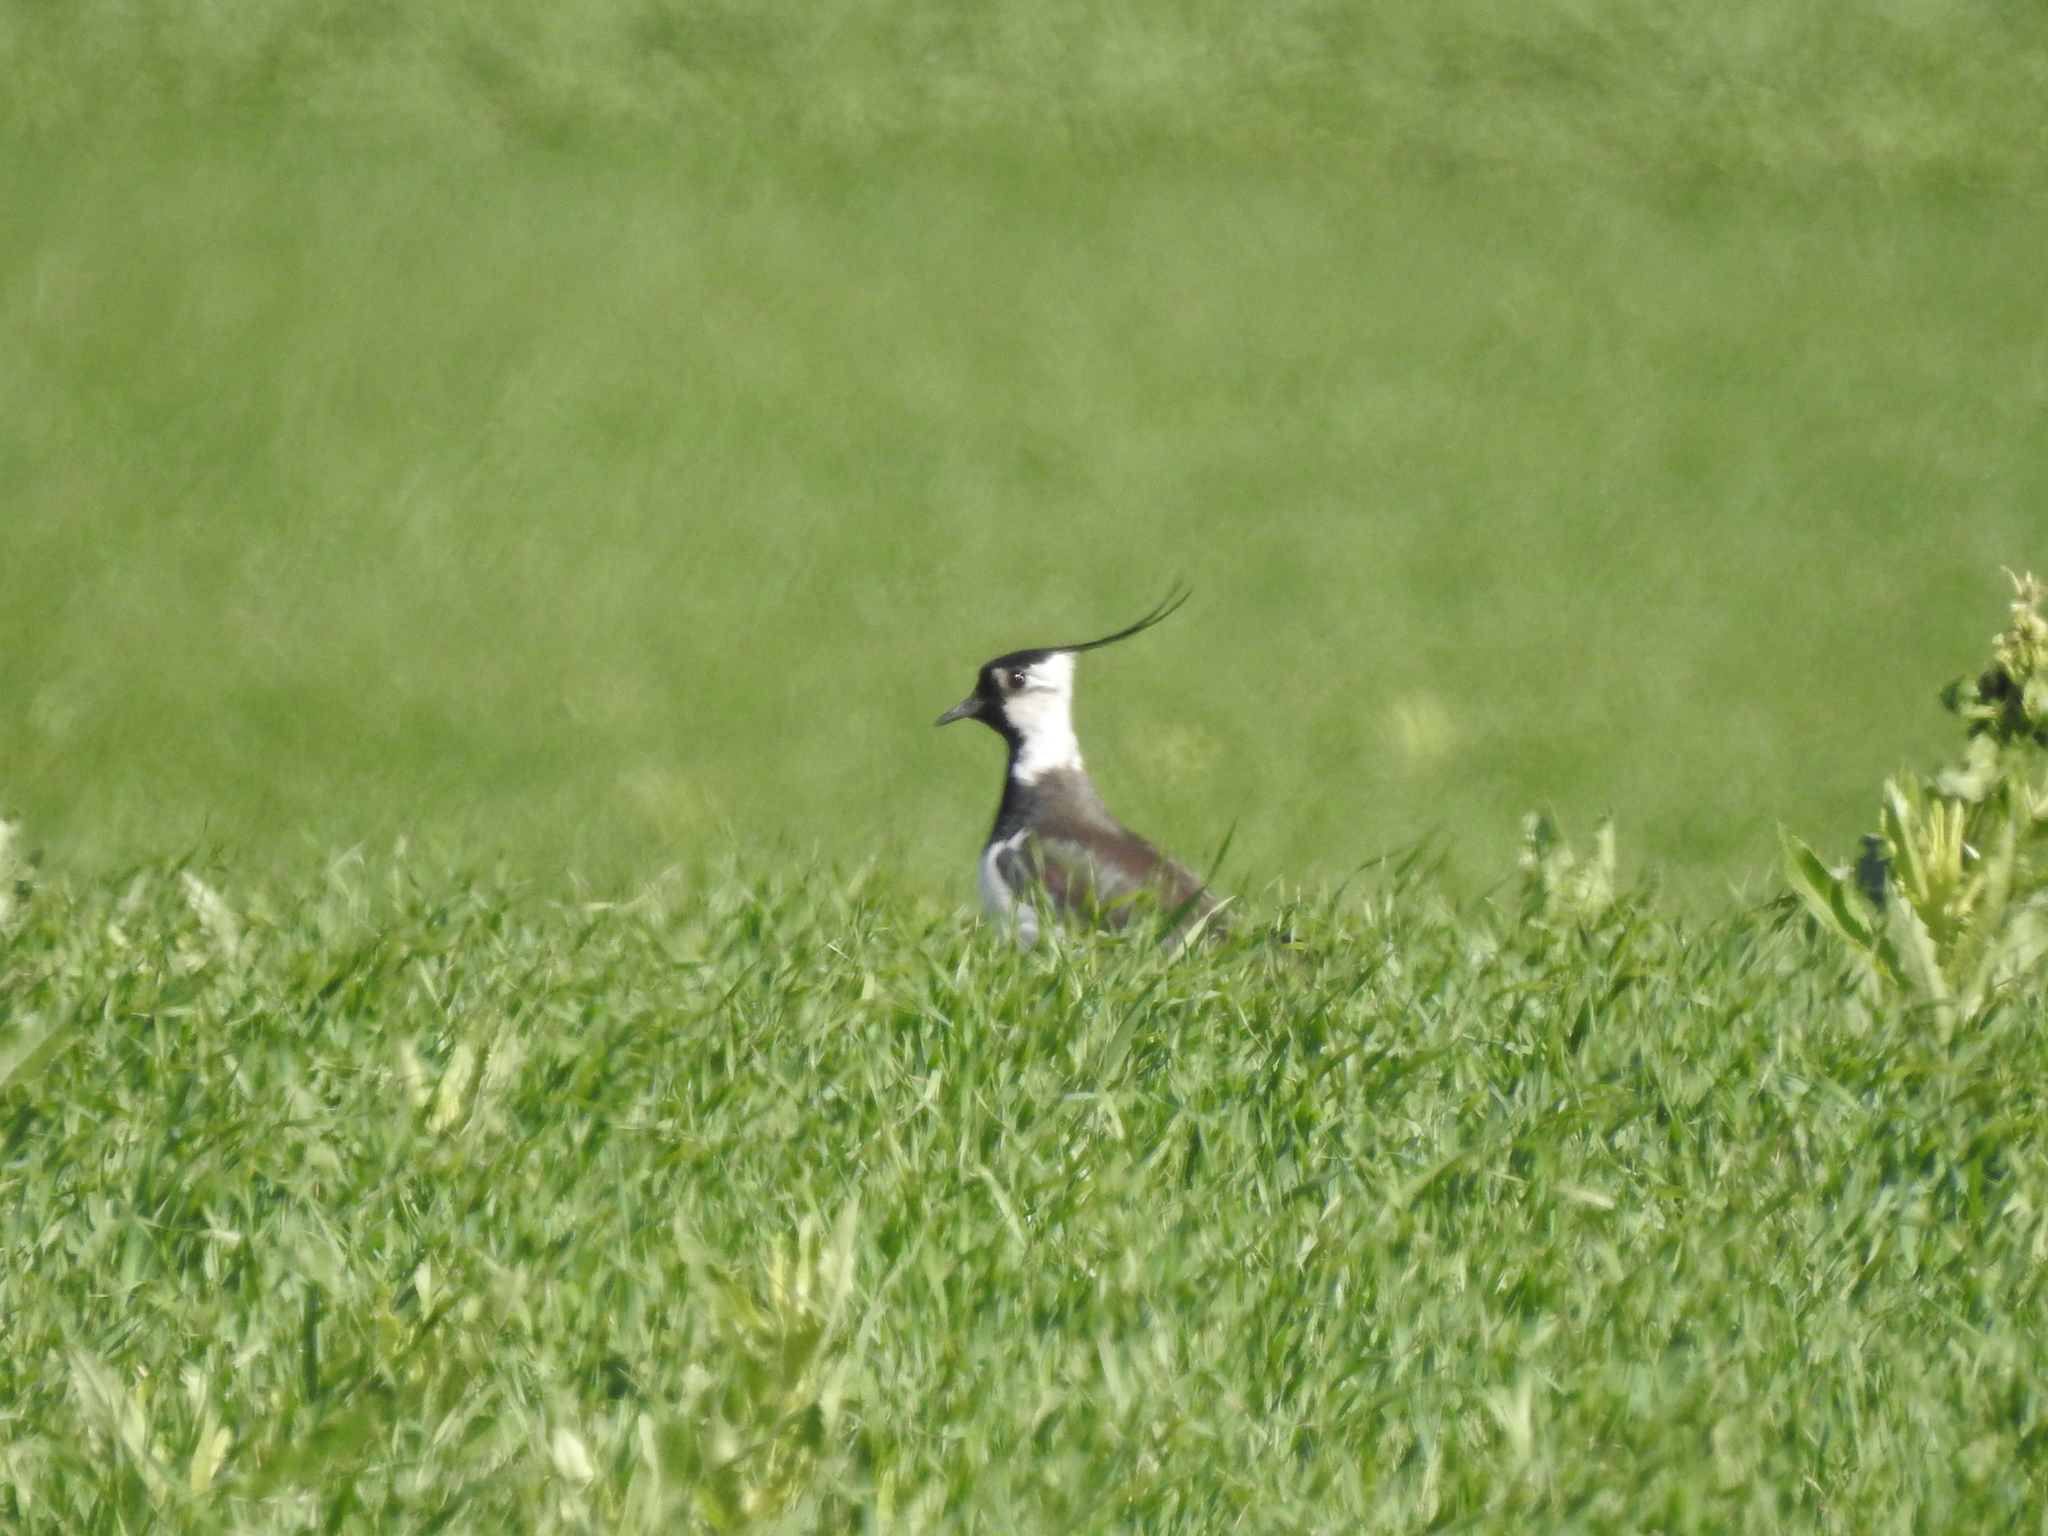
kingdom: Animalia
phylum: Chordata
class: Aves
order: Charadriiformes
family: Charadriidae
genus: Vanellus
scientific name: Vanellus vanellus
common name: Northern lapwing
